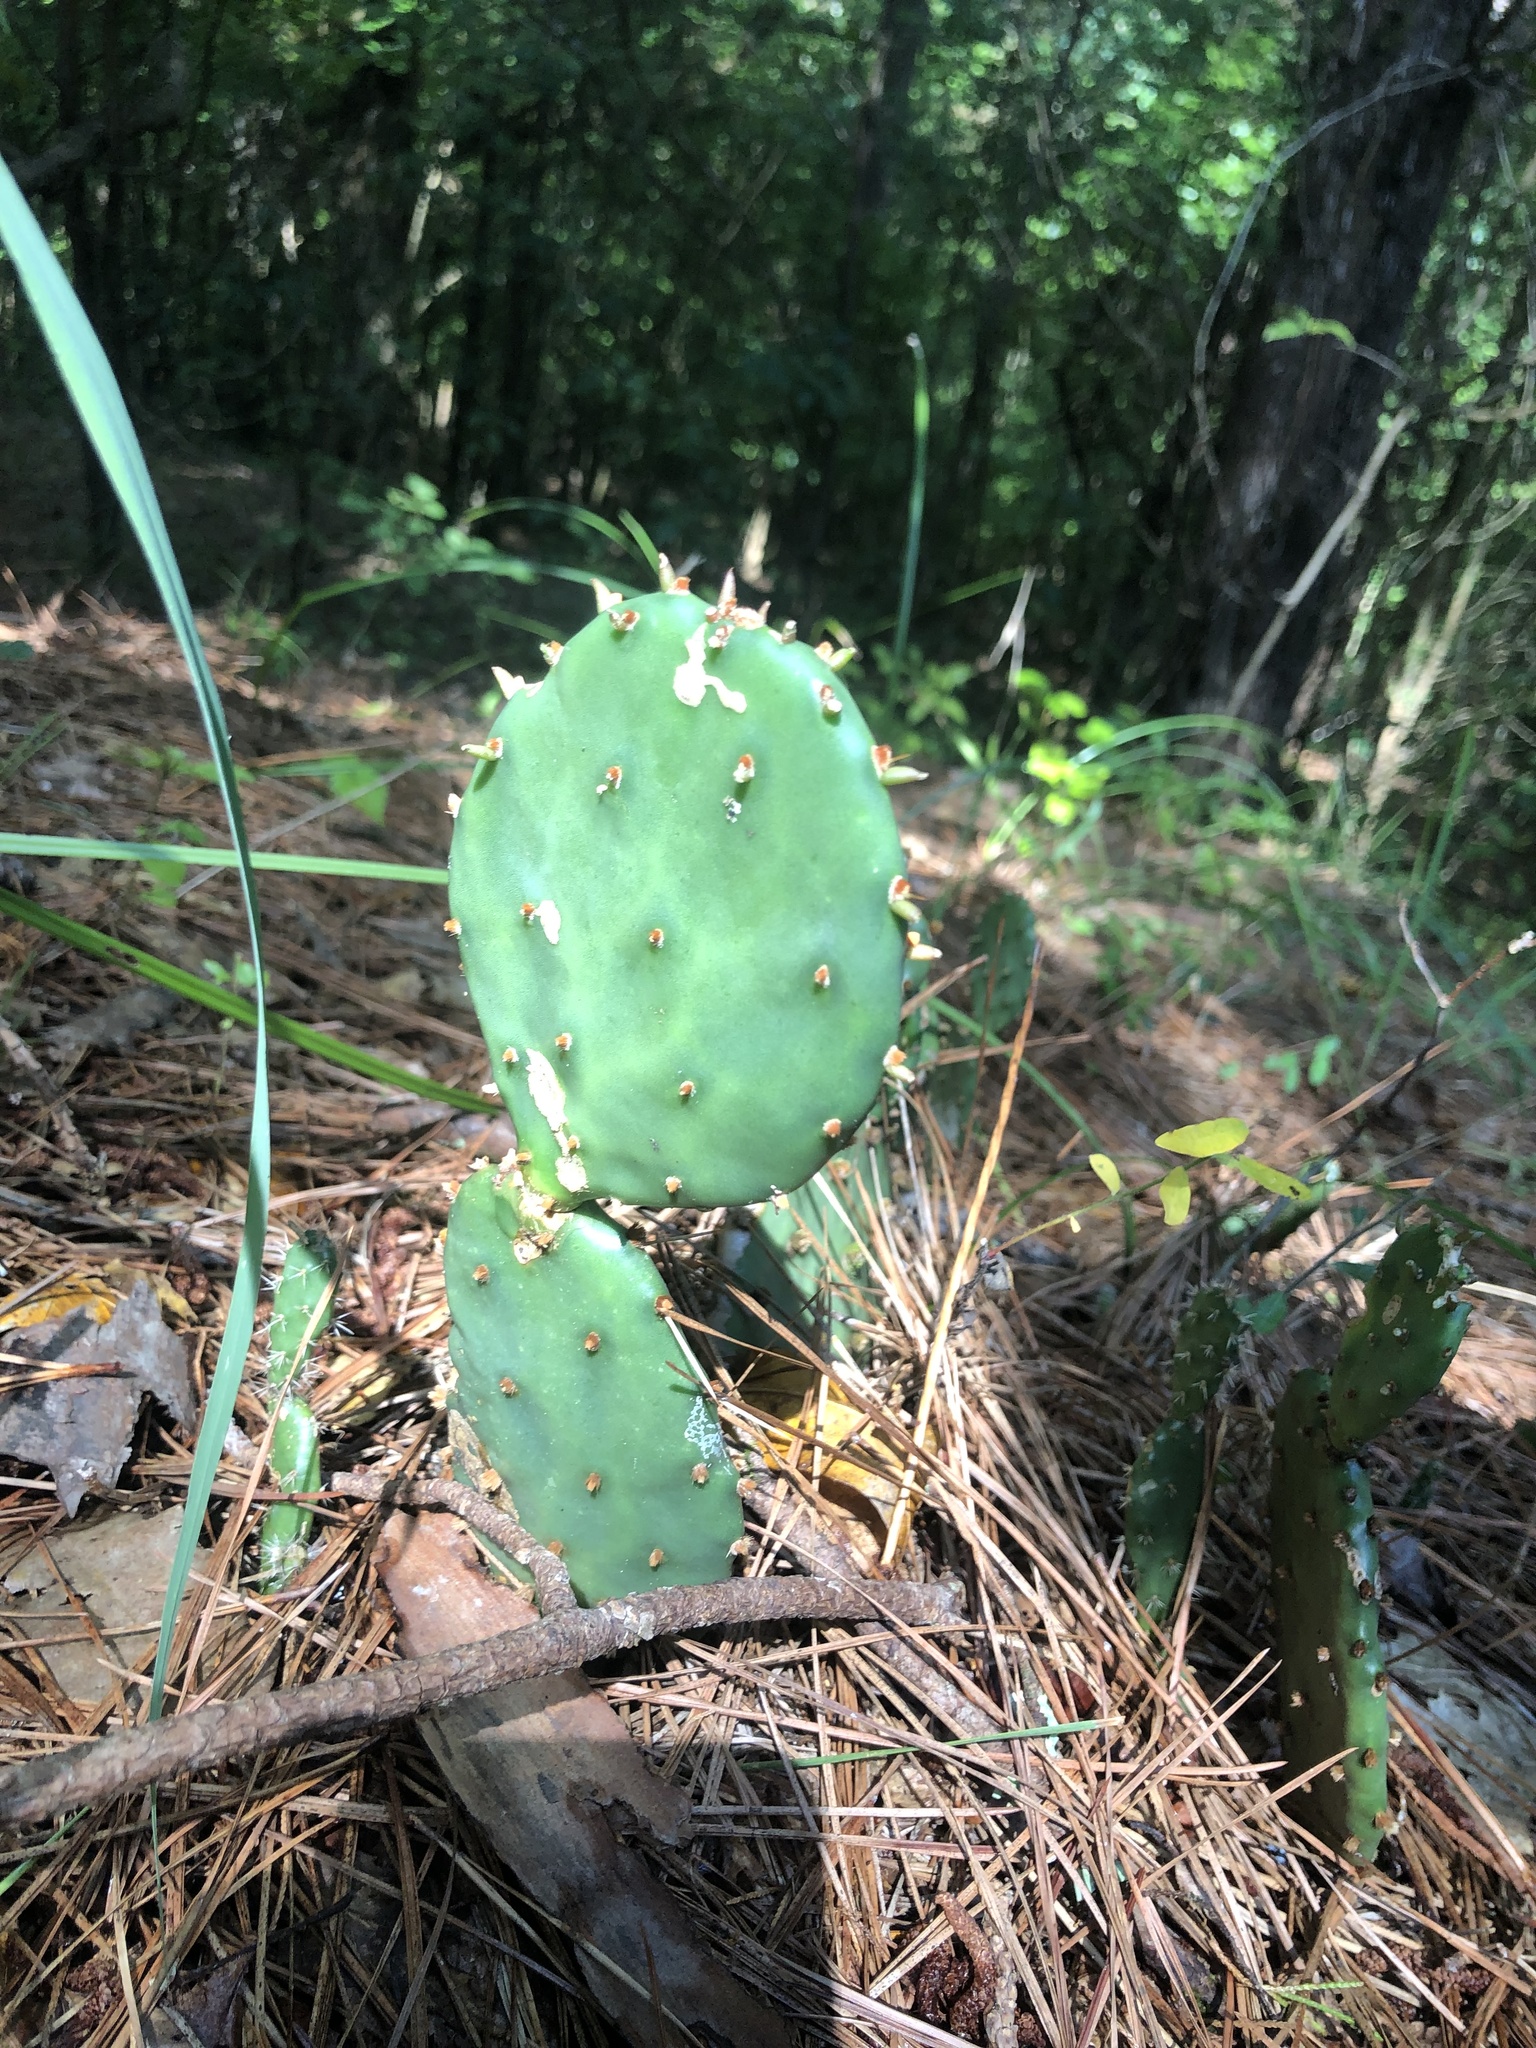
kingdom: Plantae
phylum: Tracheophyta
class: Magnoliopsida
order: Caryophyllales
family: Cactaceae
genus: Opuntia
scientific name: Opuntia macrorhiza
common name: Grassland pricklypear
